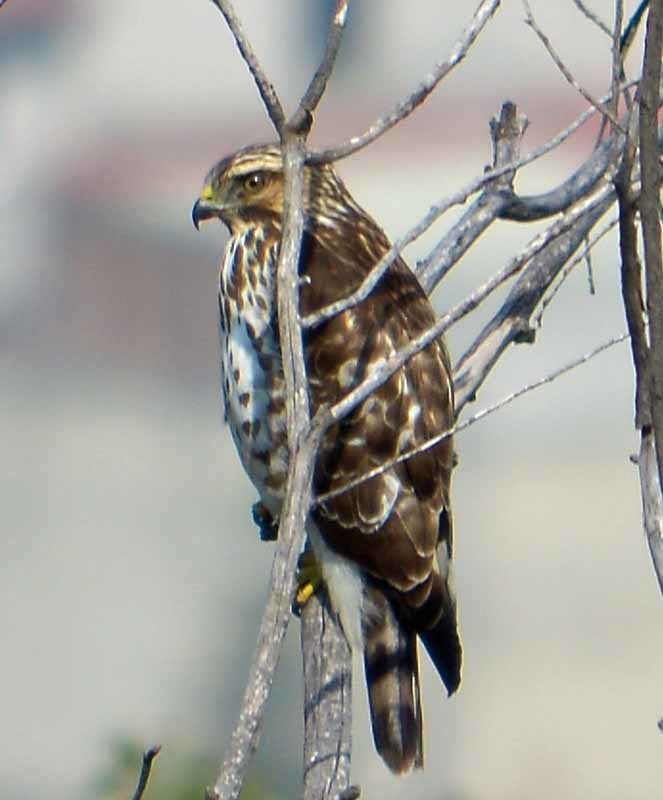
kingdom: Animalia
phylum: Chordata
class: Aves
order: Accipitriformes
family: Accipitridae
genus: Buteo
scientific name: Buteo platypterus
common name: Broad-winged hawk
